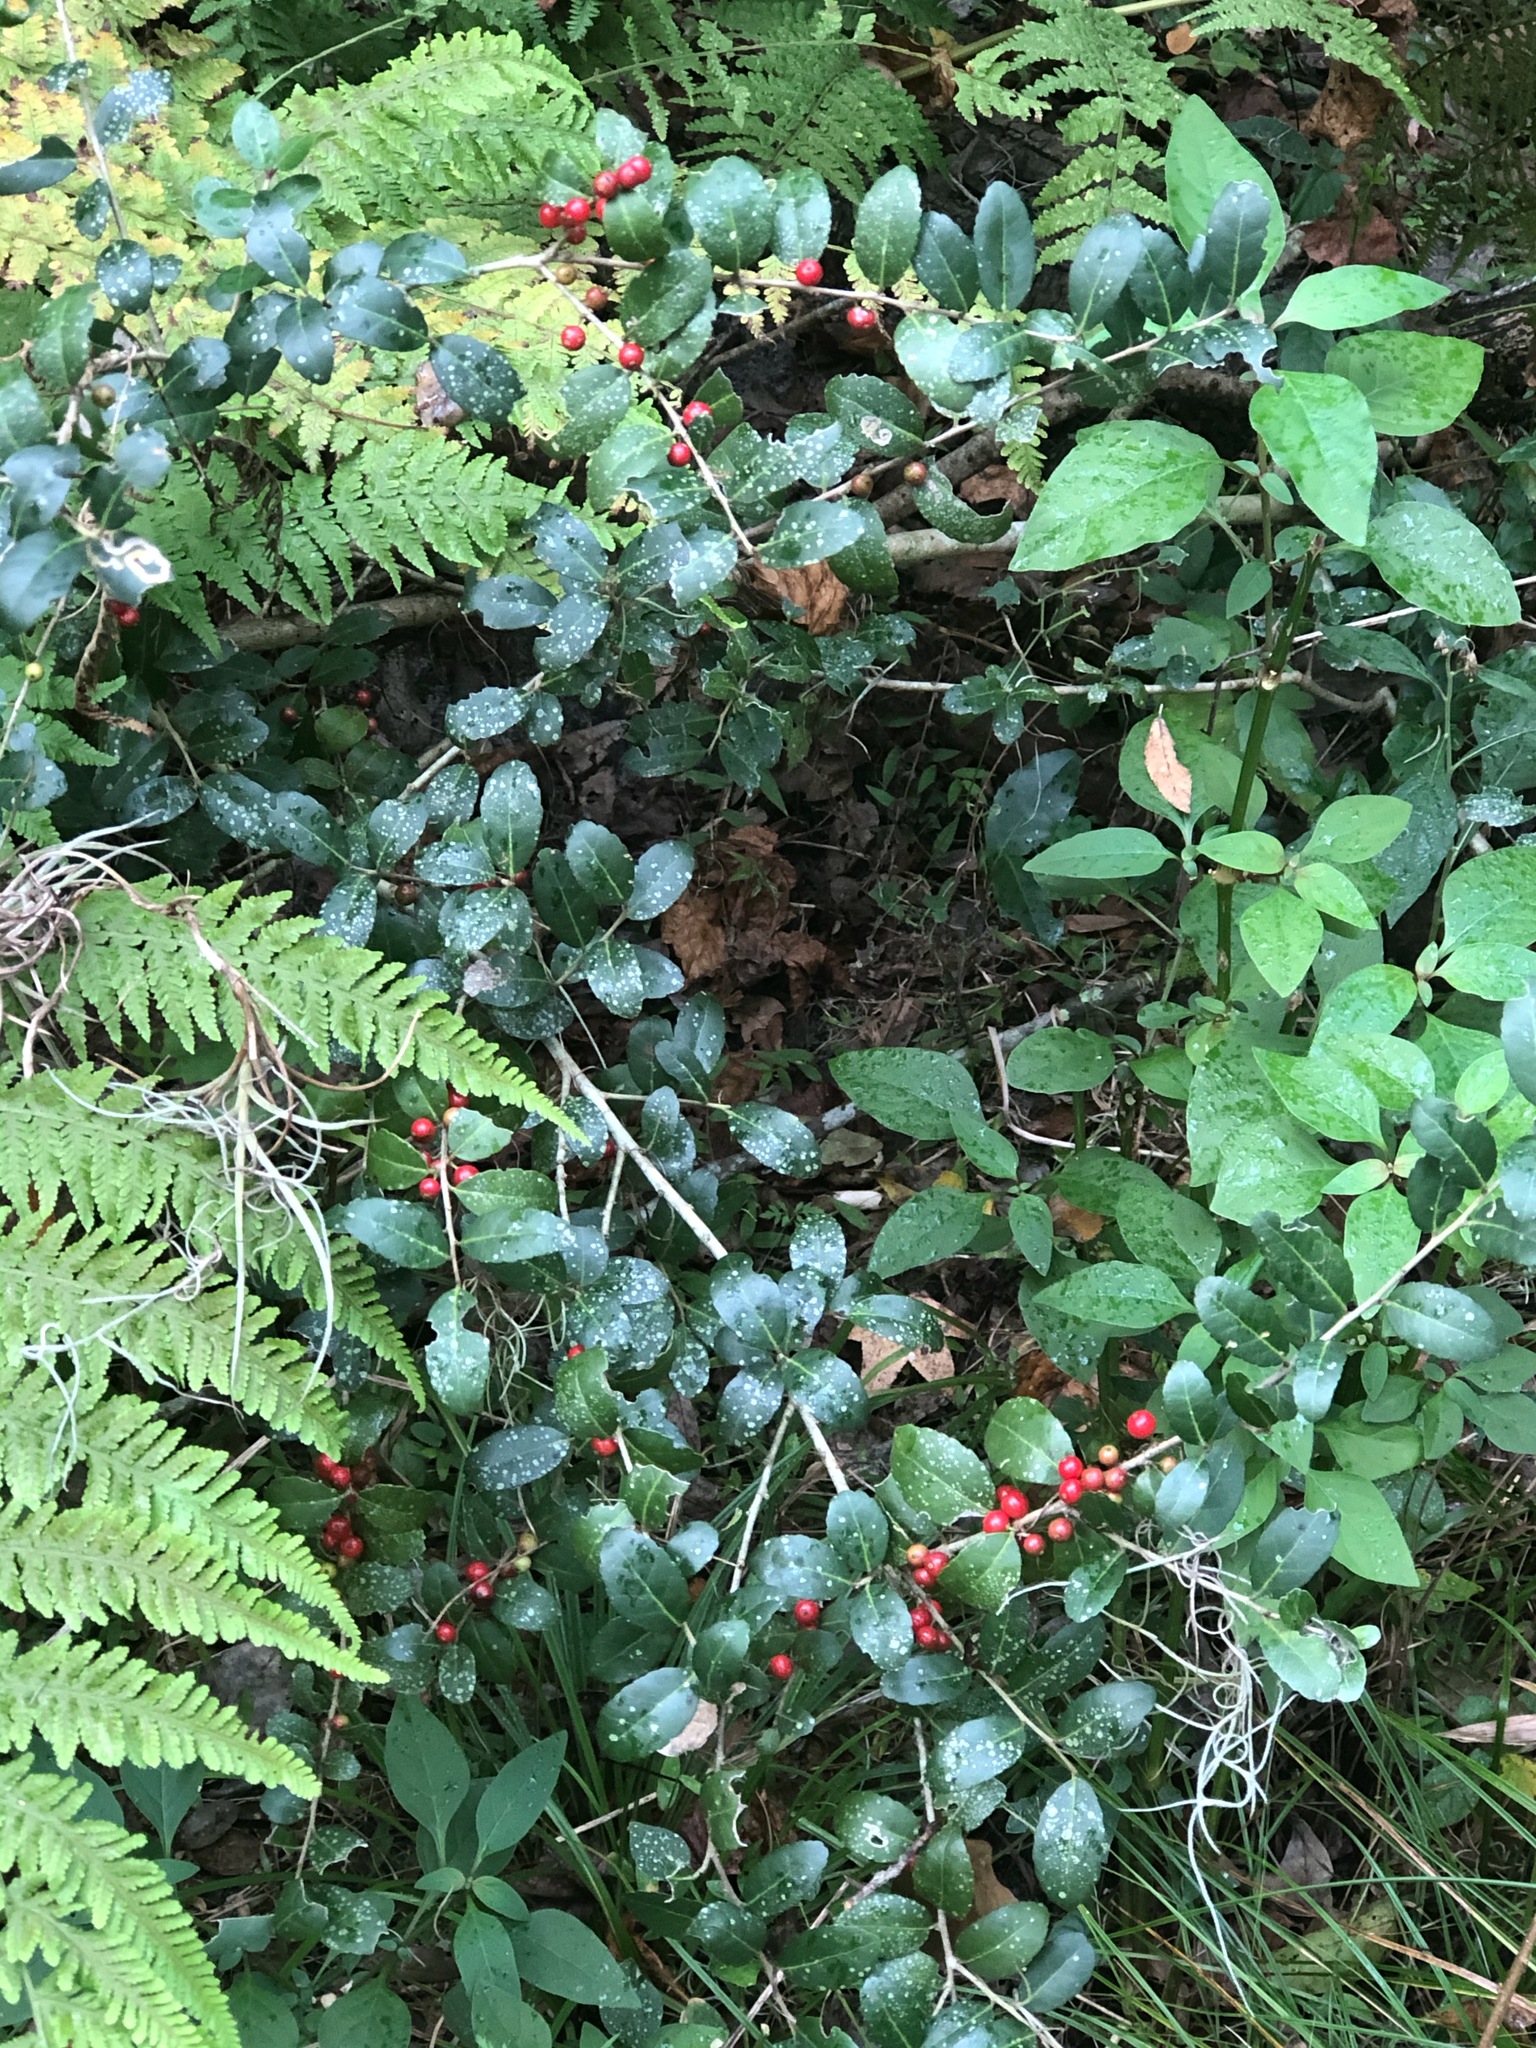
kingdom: Plantae
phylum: Tracheophyta
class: Magnoliopsida
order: Aquifoliales
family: Aquifoliaceae
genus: Ilex
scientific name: Ilex vomitoria
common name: Yaupon holly
